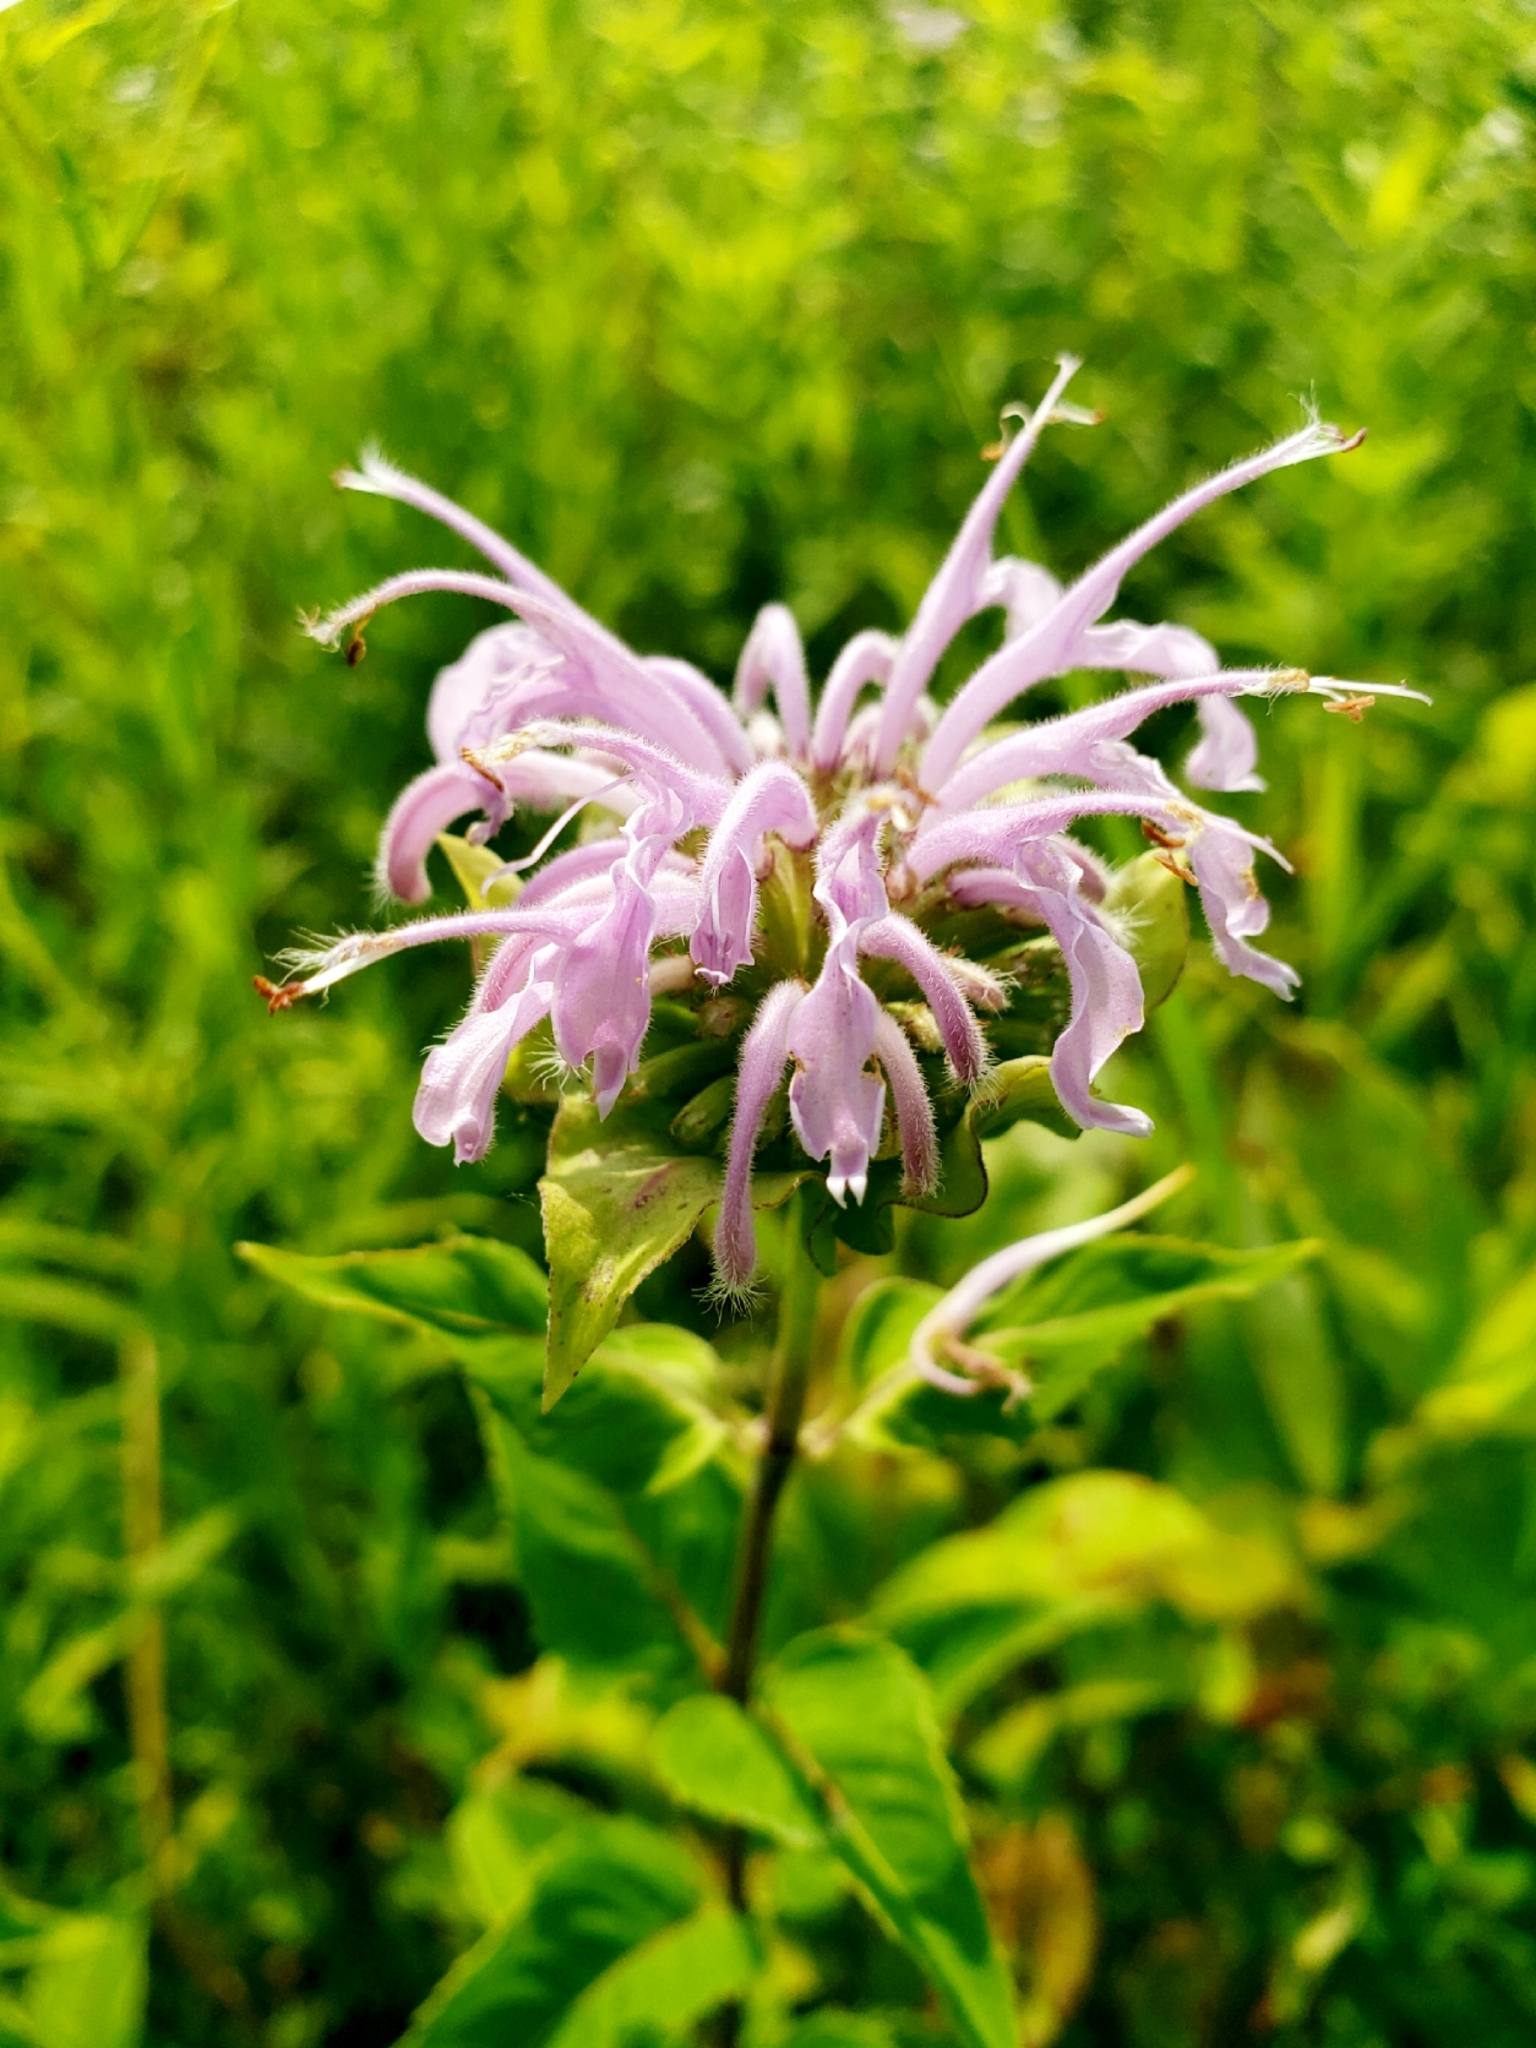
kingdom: Plantae
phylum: Tracheophyta
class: Magnoliopsida
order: Lamiales
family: Lamiaceae
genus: Monarda
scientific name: Monarda fistulosa
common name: Purple beebalm
